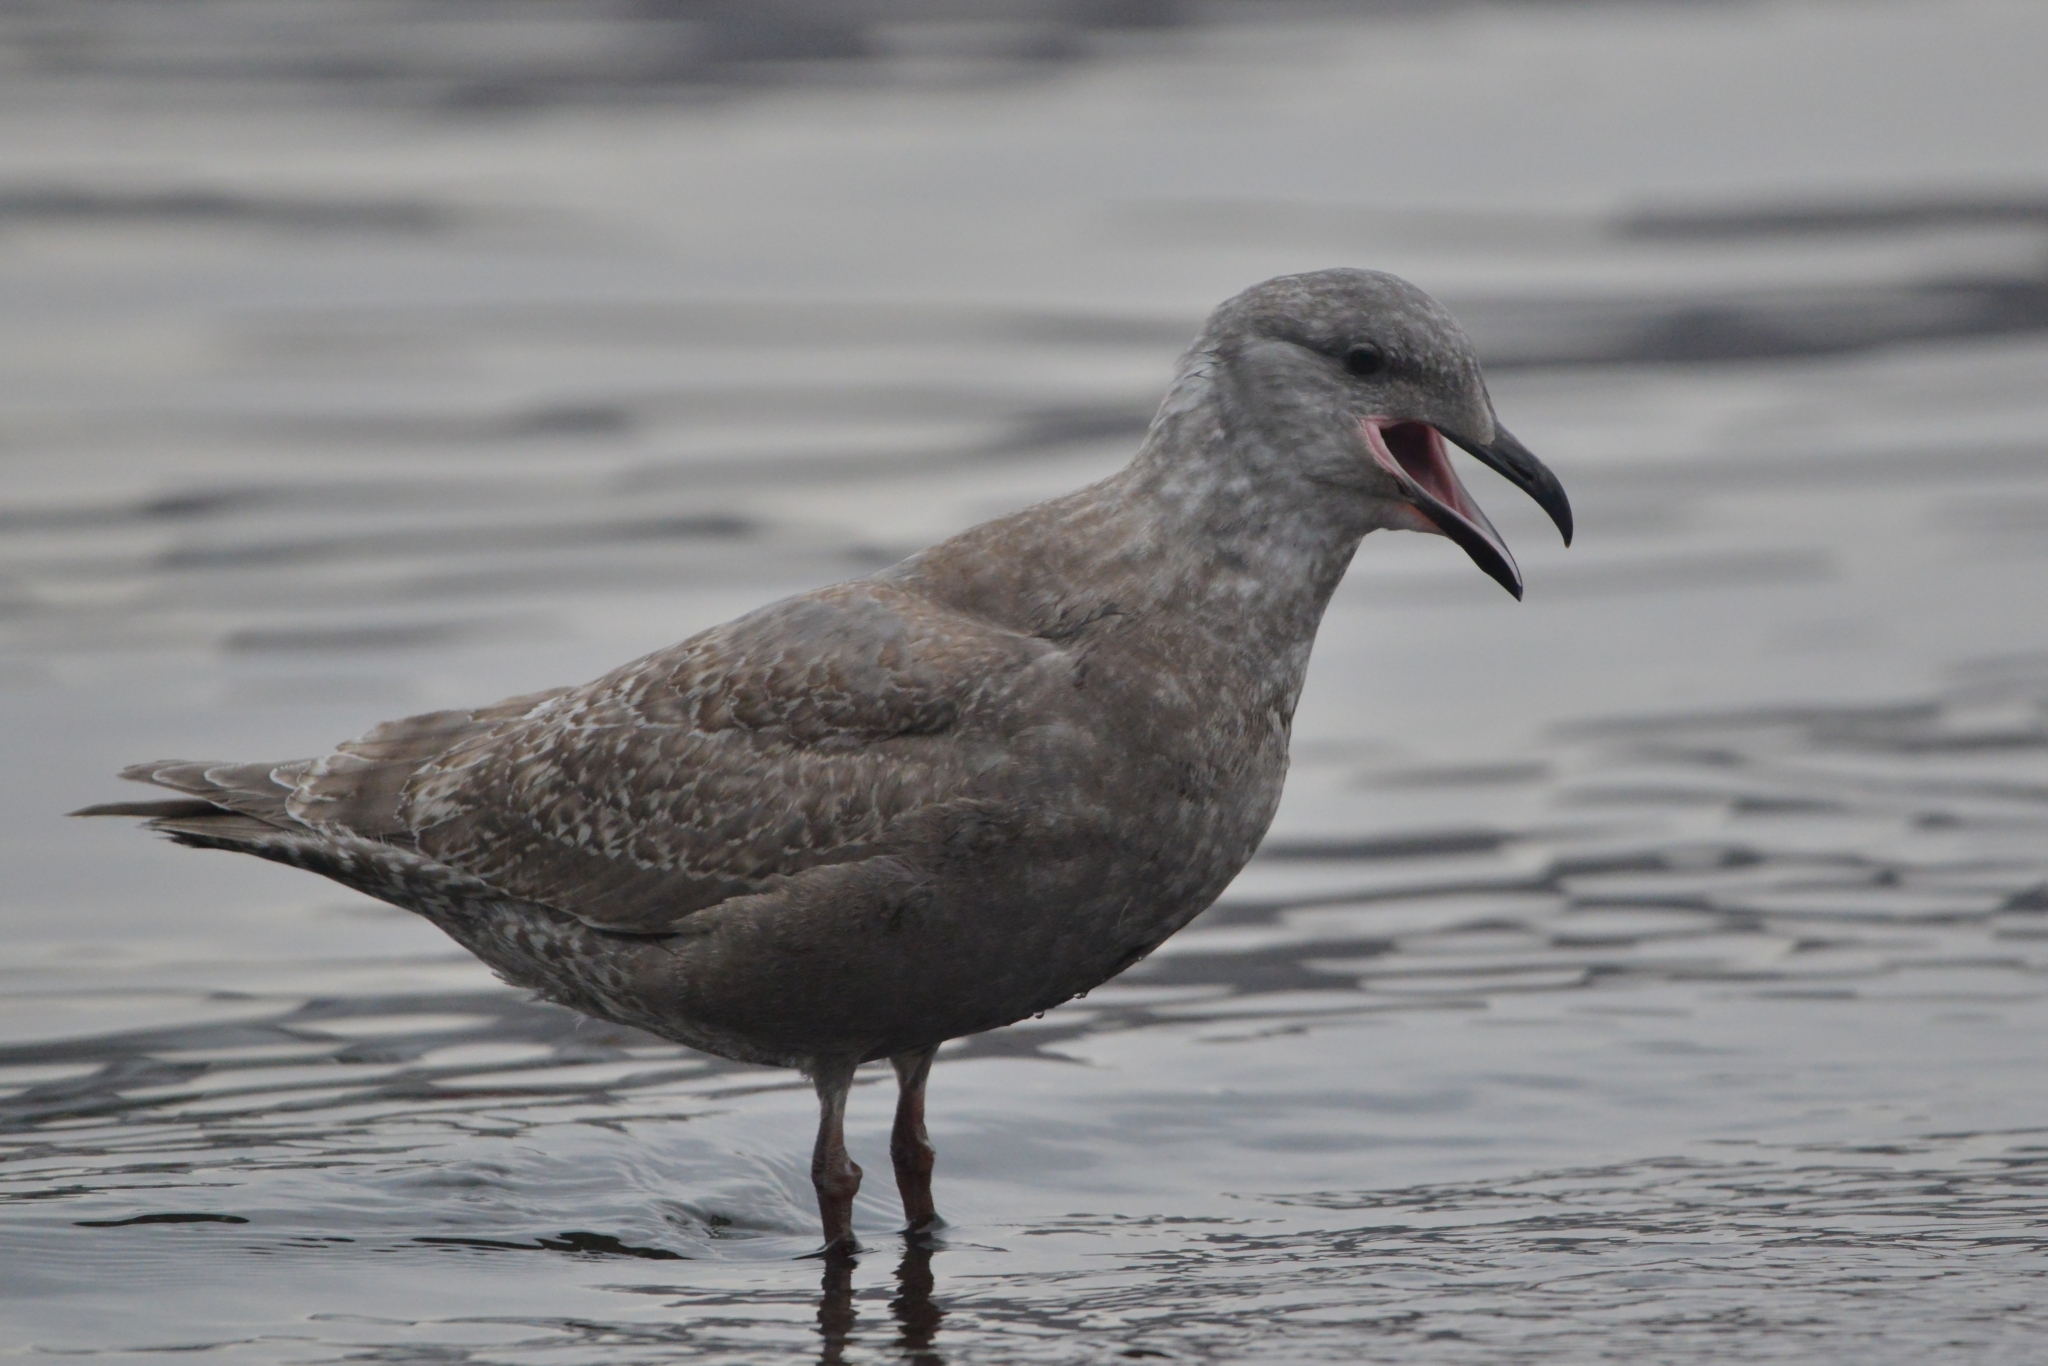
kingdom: Animalia
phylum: Chordata
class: Aves
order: Charadriiformes
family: Laridae
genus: Larus
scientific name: Larus glaucescens
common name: Glaucous-winged gull
